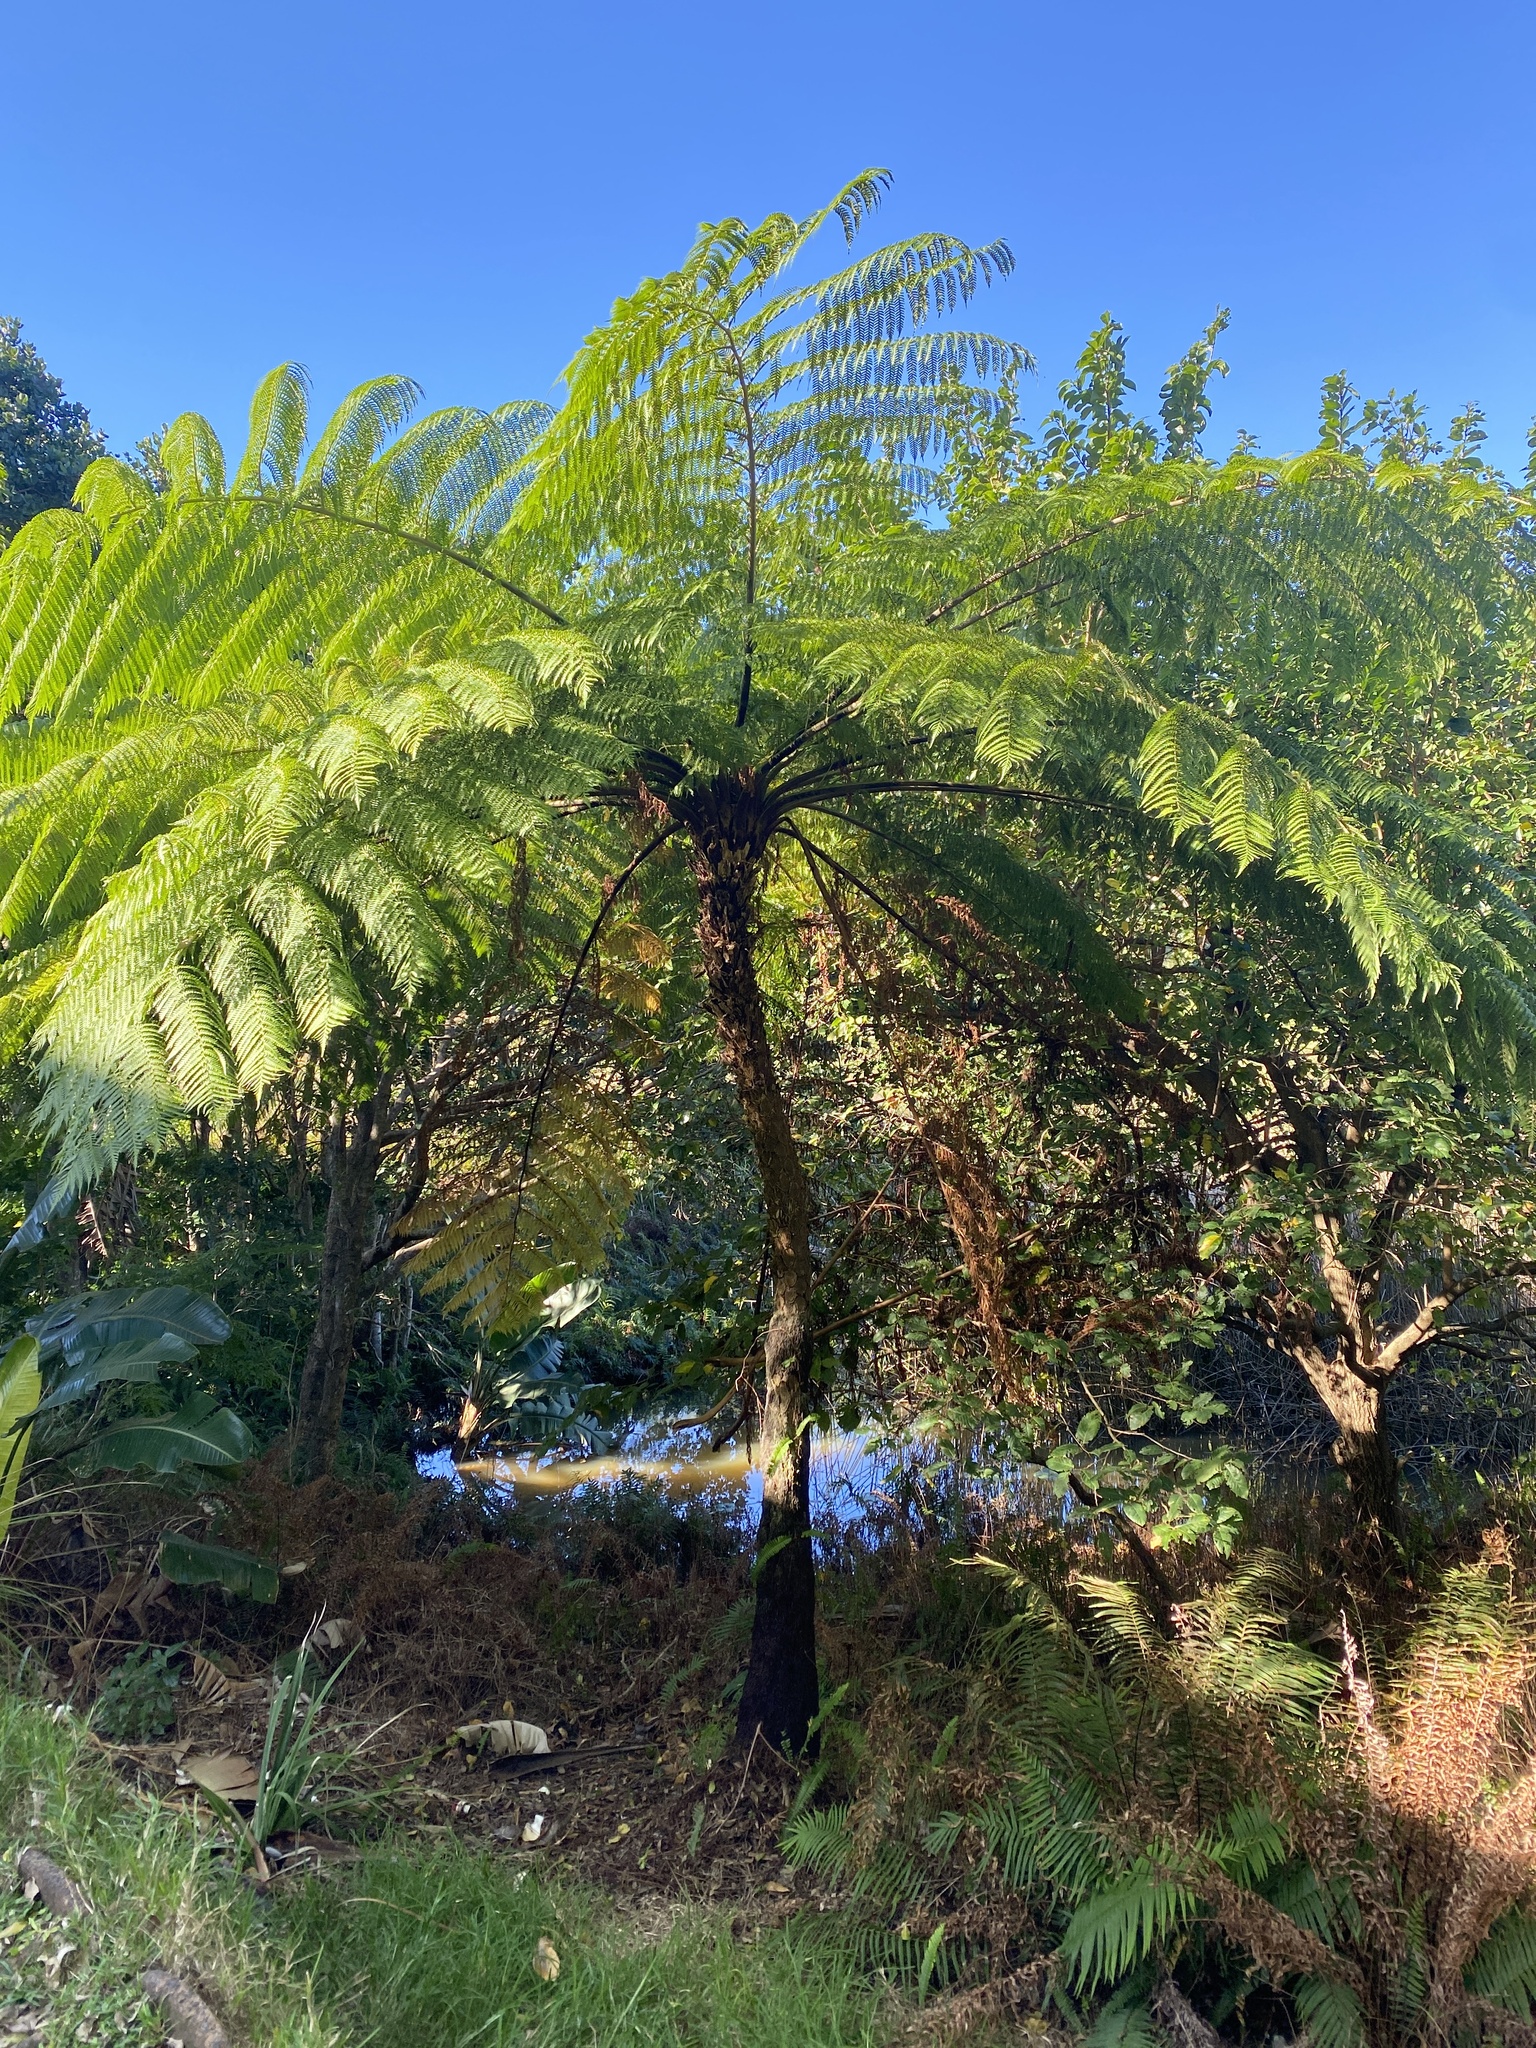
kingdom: Plantae
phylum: Tracheophyta
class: Polypodiopsida
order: Cyatheales
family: Cyatheaceae
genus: Sphaeropteris
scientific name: Sphaeropteris cooperi
